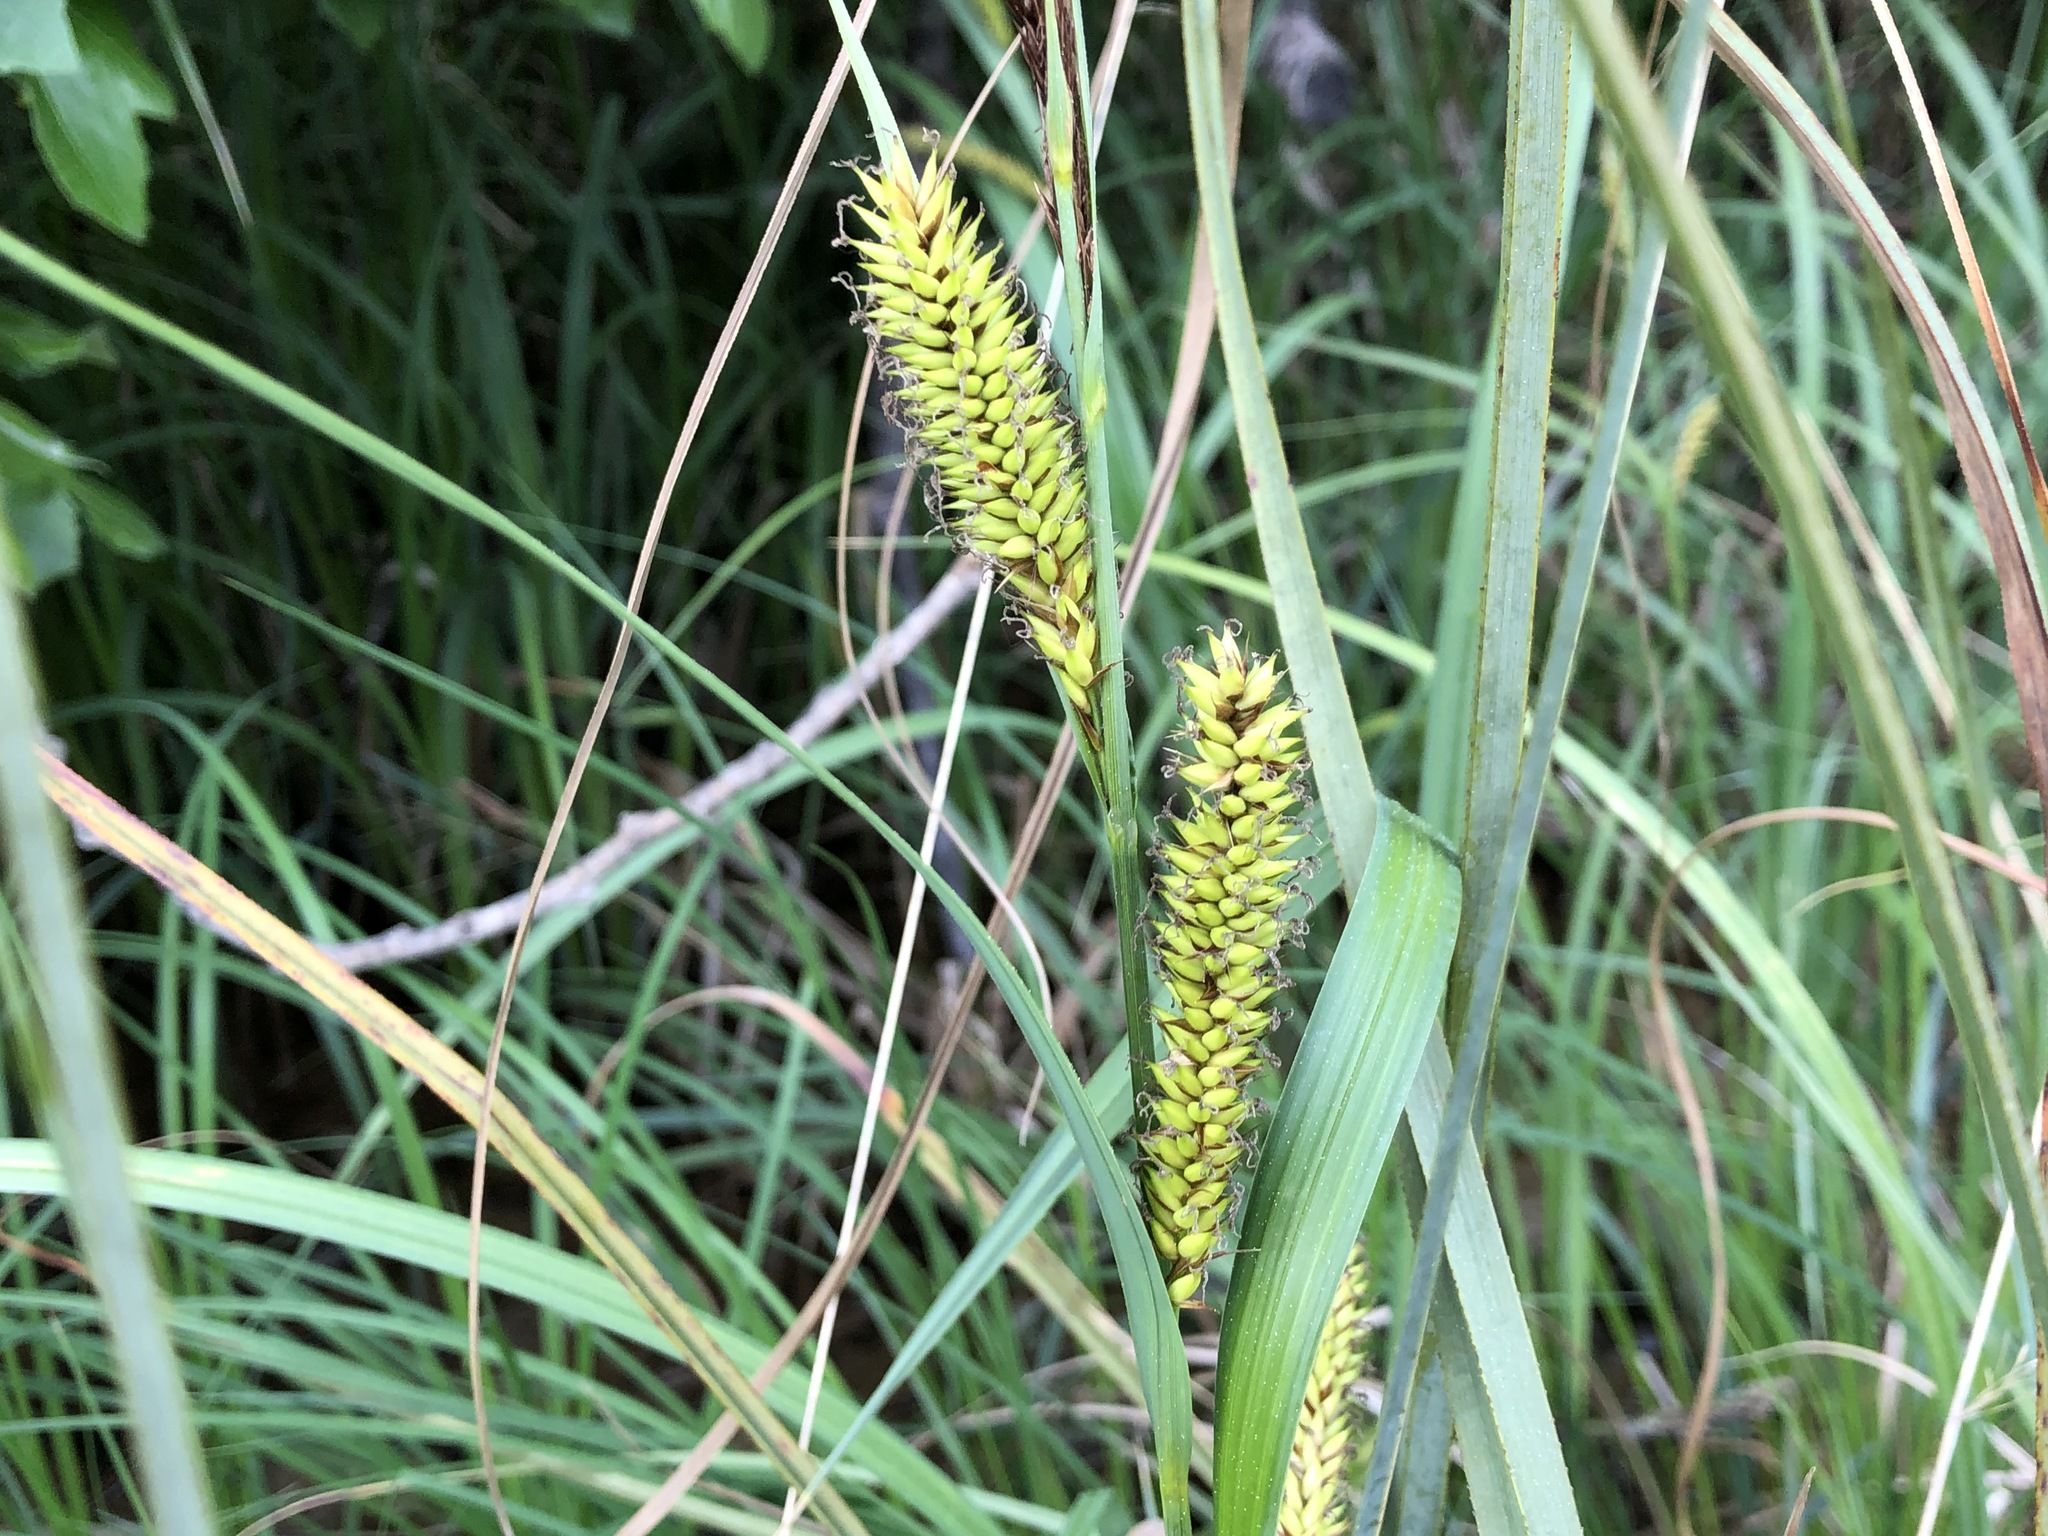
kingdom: Plantae
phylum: Tracheophyta
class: Liliopsida
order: Poales
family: Cyperaceae
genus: Carex
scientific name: Carex vesicaria
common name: Bladder-sedge
